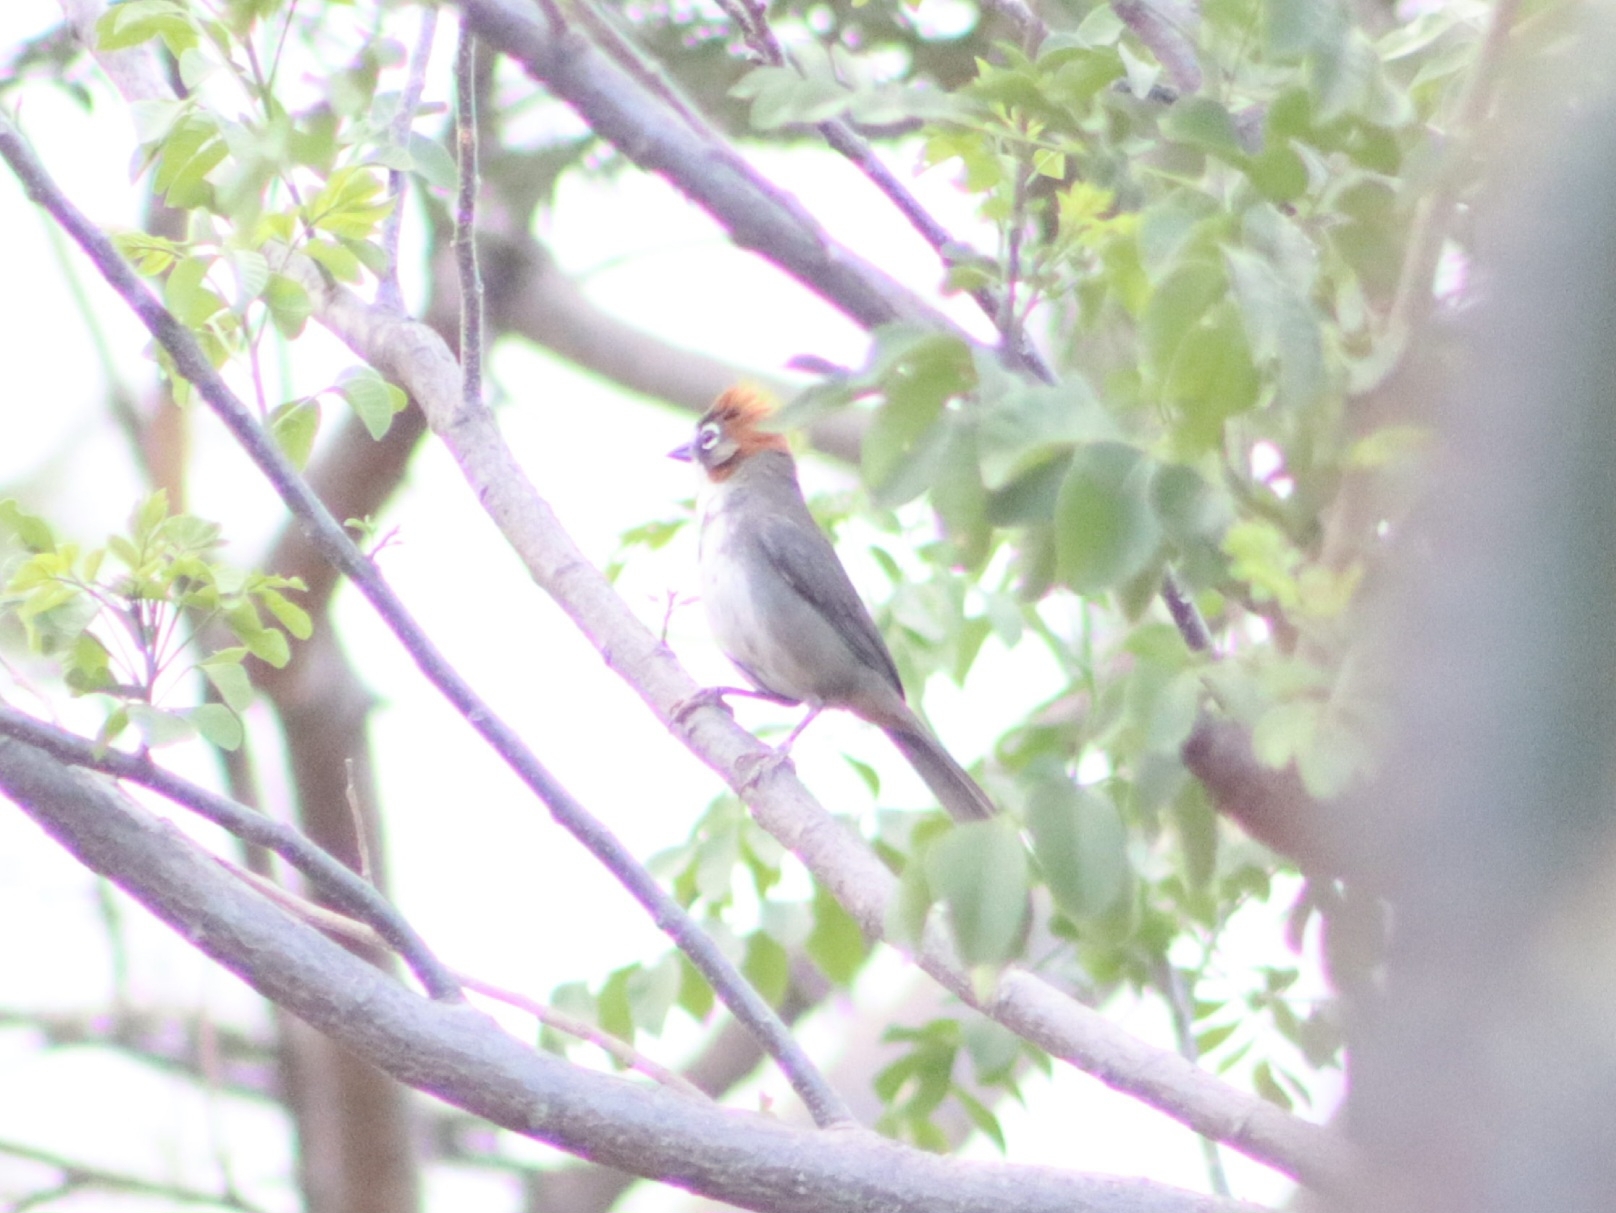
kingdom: Animalia
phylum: Chordata
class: Aves
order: Passeriformes
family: Passerellidae
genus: Melozone
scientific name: Melozone kieneri
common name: Rusty-crowned ground-sparrow
